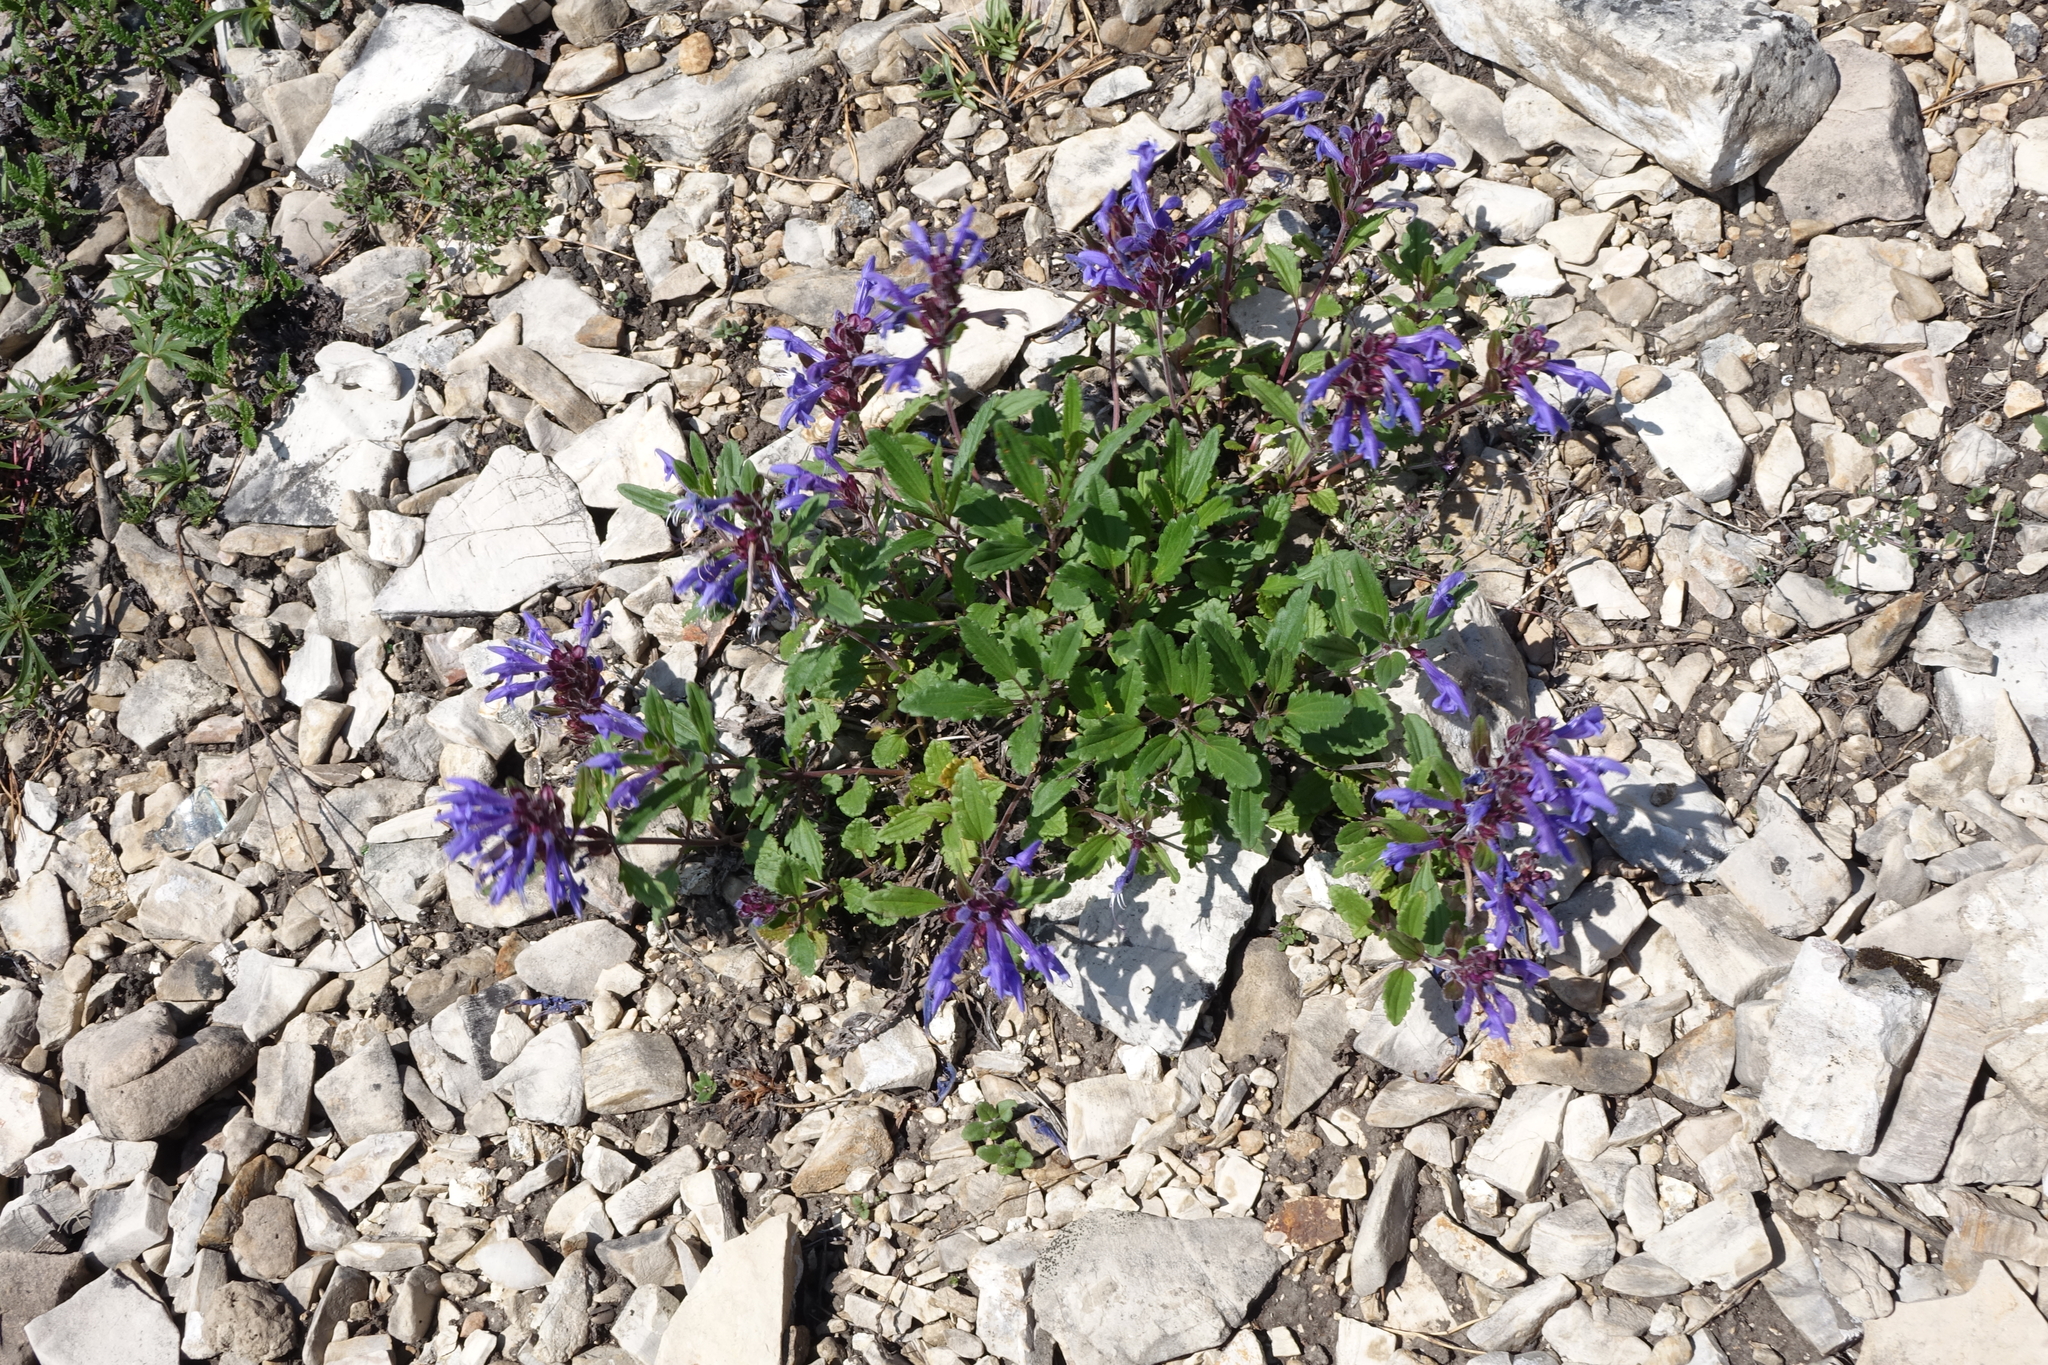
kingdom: Plantae
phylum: Tracheophyta
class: Magnoliopsida
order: Lamiales
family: Lamiaceae
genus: Dracocephalum
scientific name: Dracocephalum stellerianum
